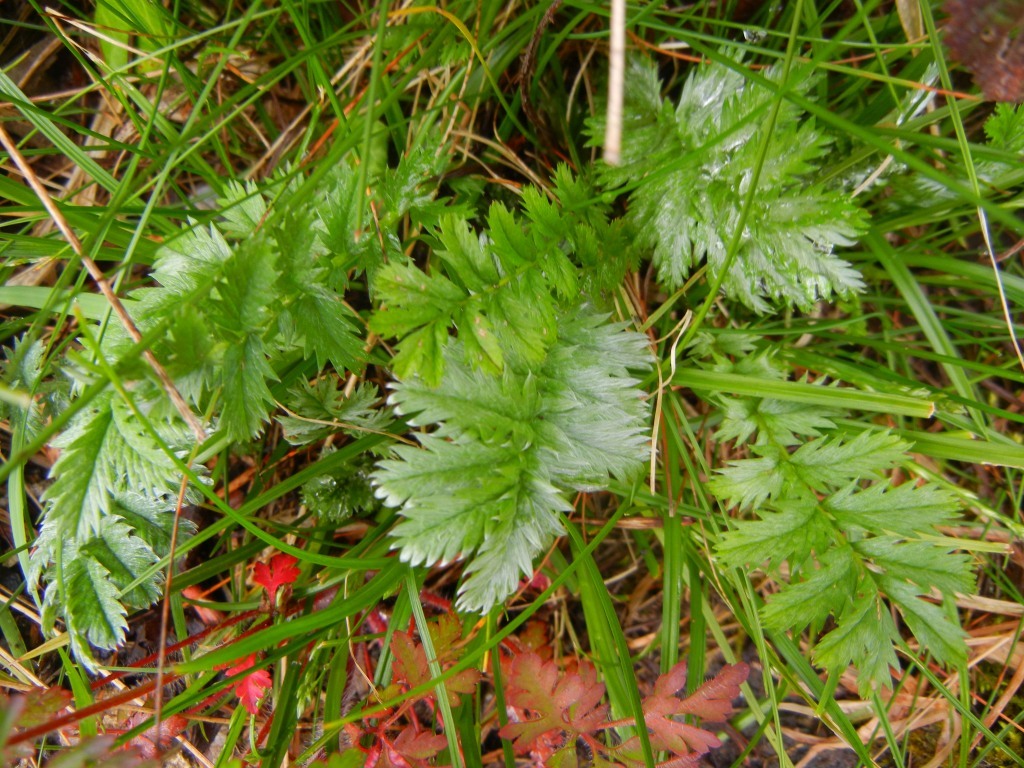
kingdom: Plantae
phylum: Tracheophyta
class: Magnoliopsida
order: Rosales
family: Rosaceae
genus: Argentina
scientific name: Argentina anserina
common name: Common silverweed
